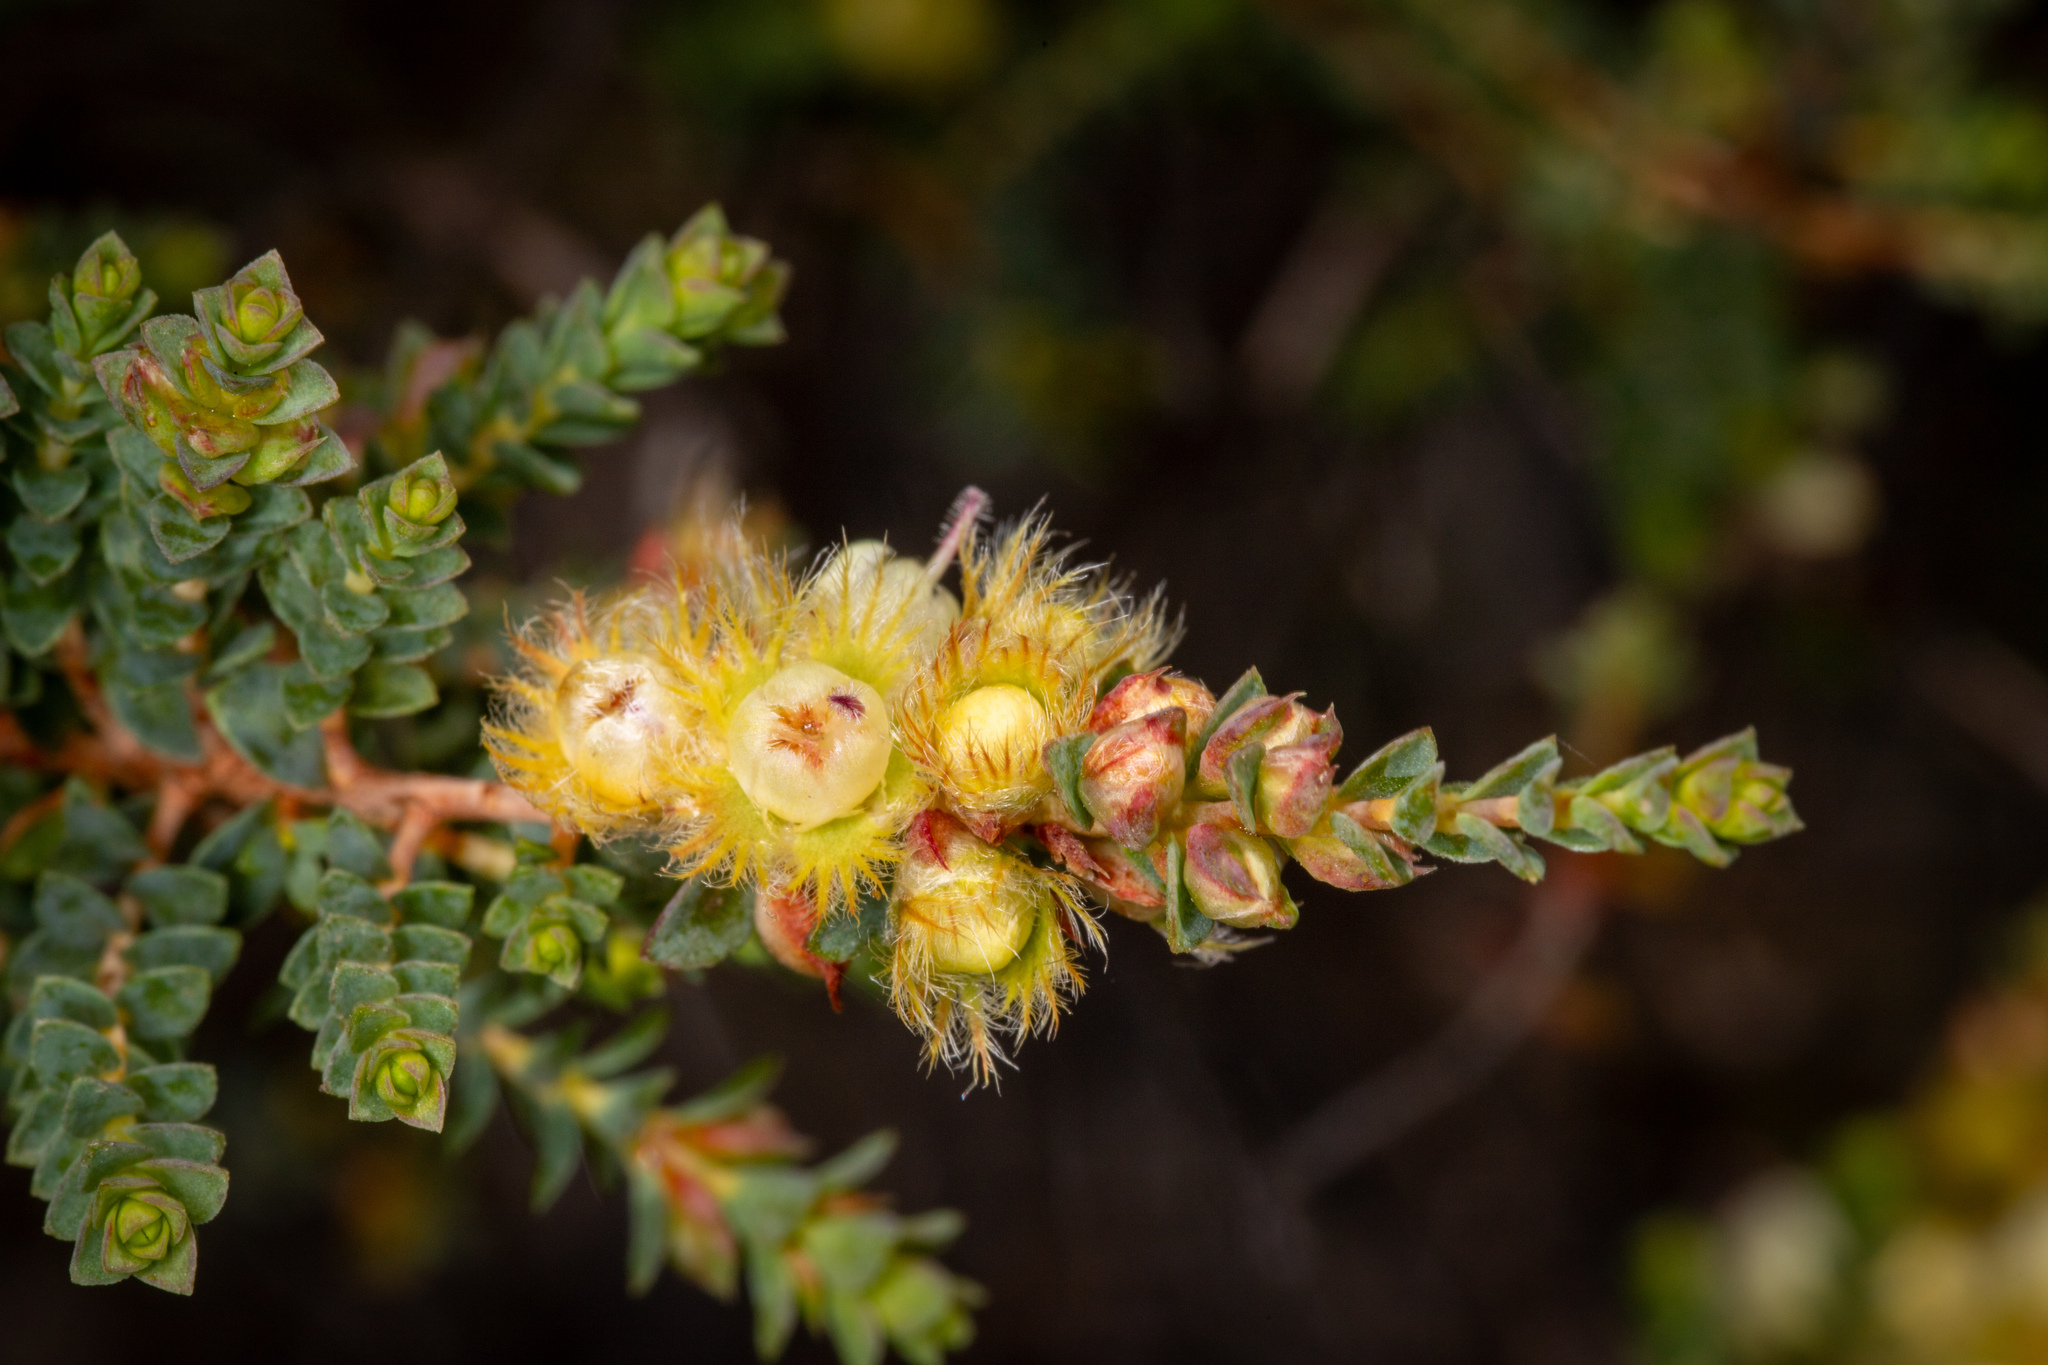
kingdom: Plantae
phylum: Tracheophyta
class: Magnoliopsida
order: Myrtales
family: Myrtaceae
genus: Verticordia
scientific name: Verticordia lepidophylla
